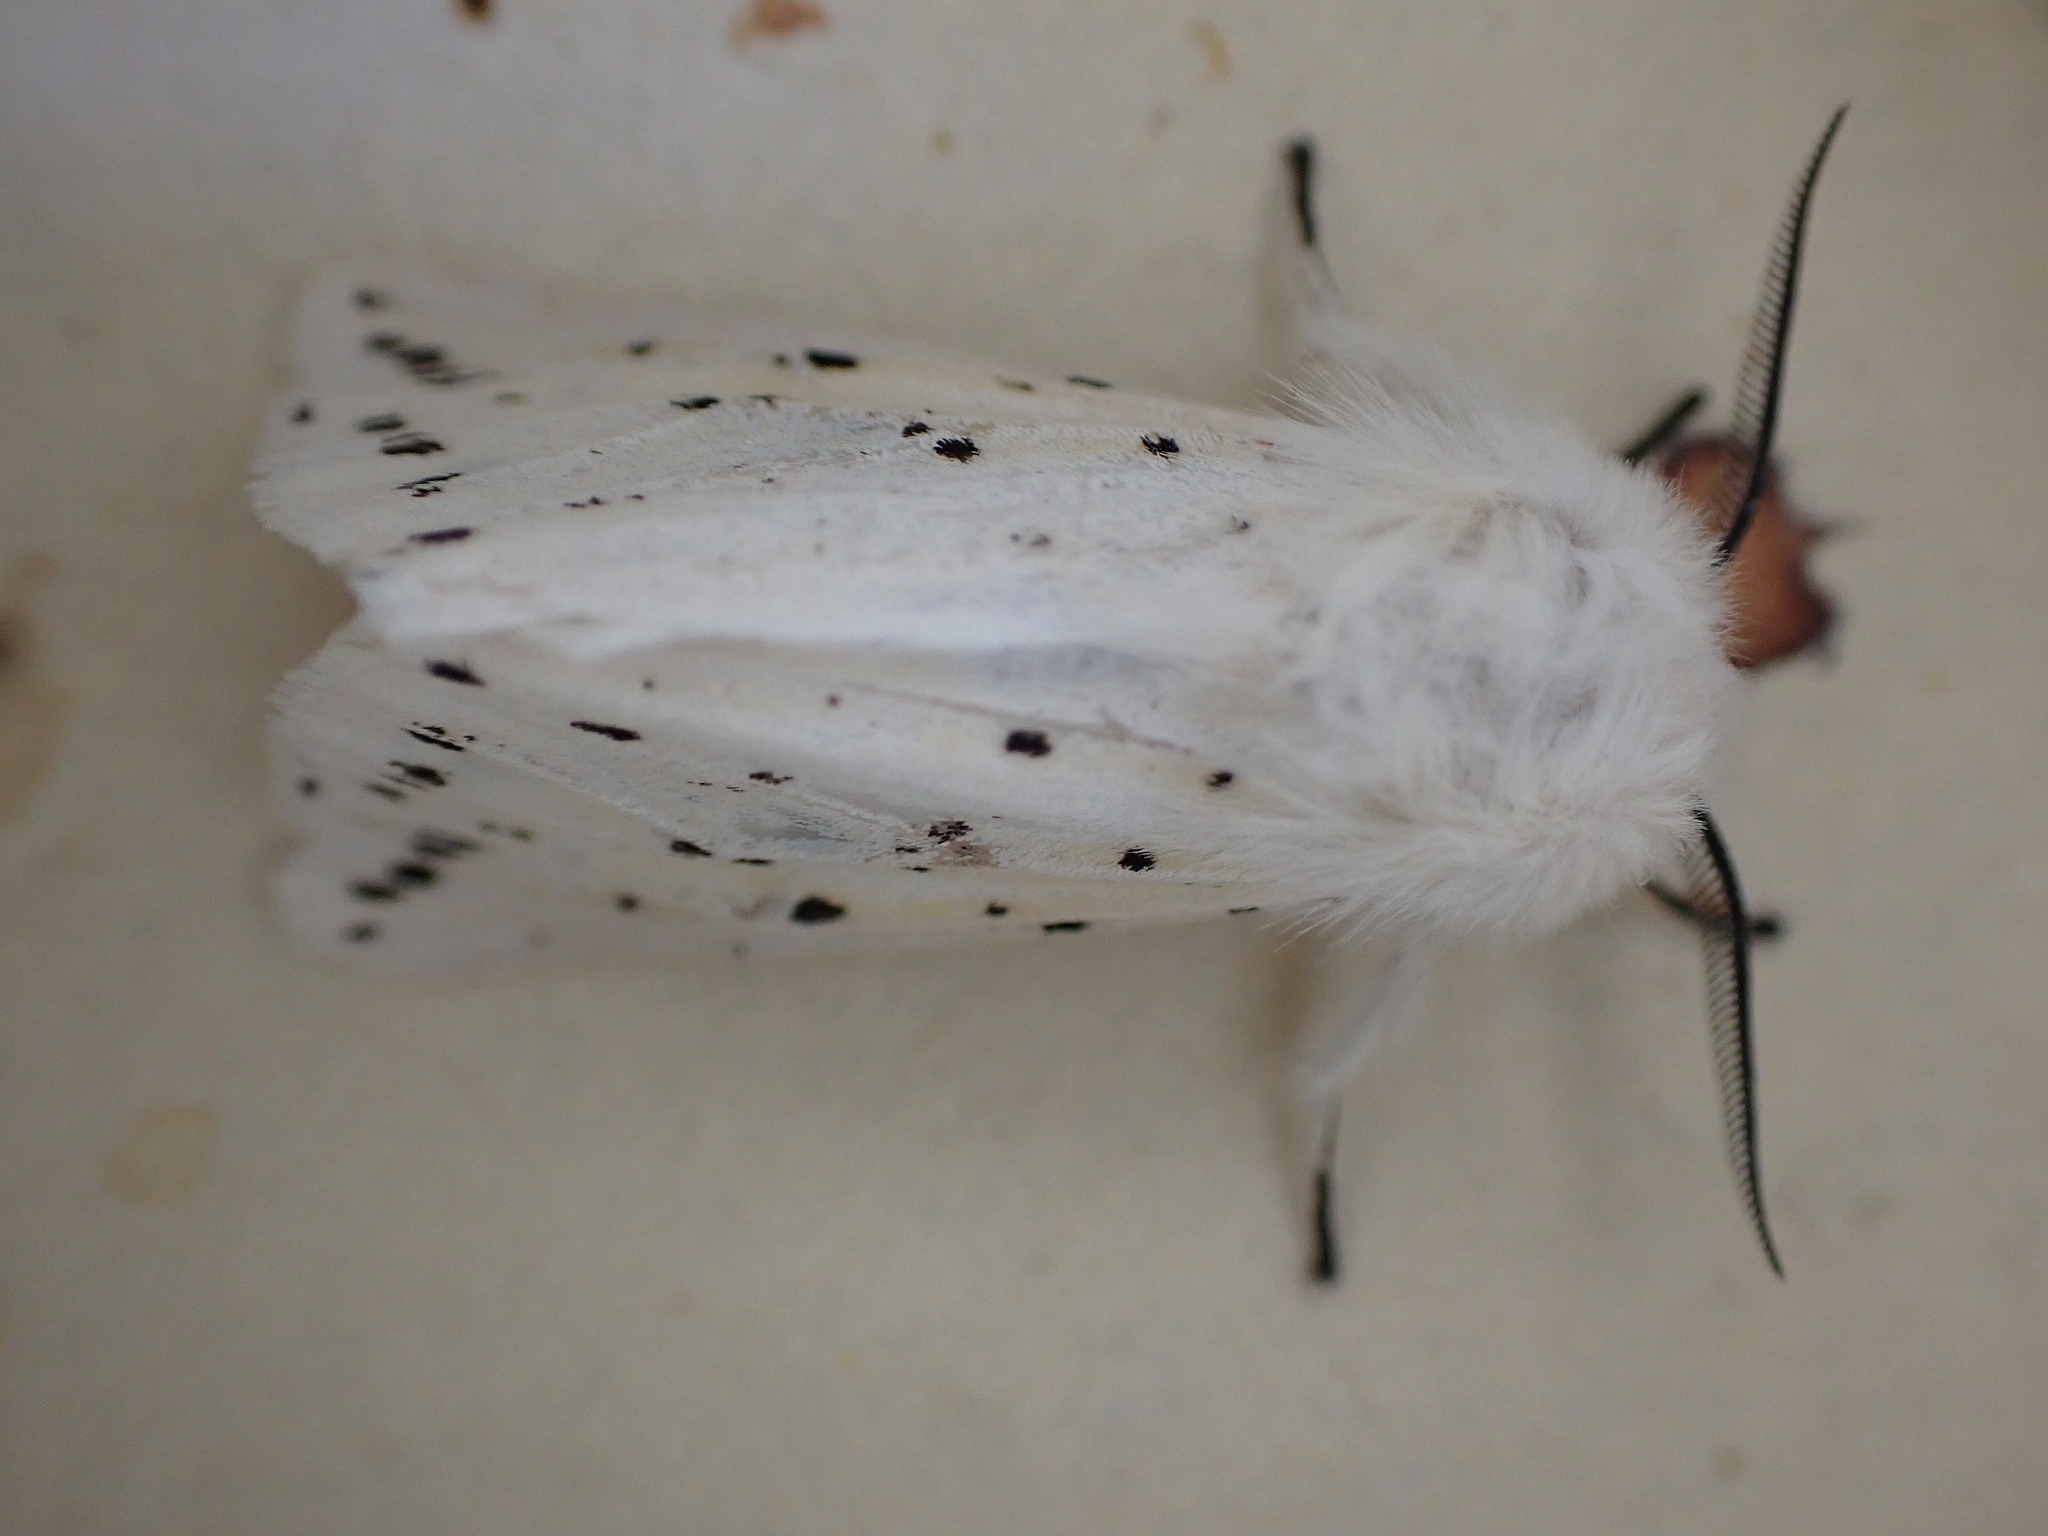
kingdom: Animalia
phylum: Arthropoda
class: Insecta
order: Lepidoptera
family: Erebidae
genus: Spilosoma
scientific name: Spilosoma lubricipeda
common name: White ermine
